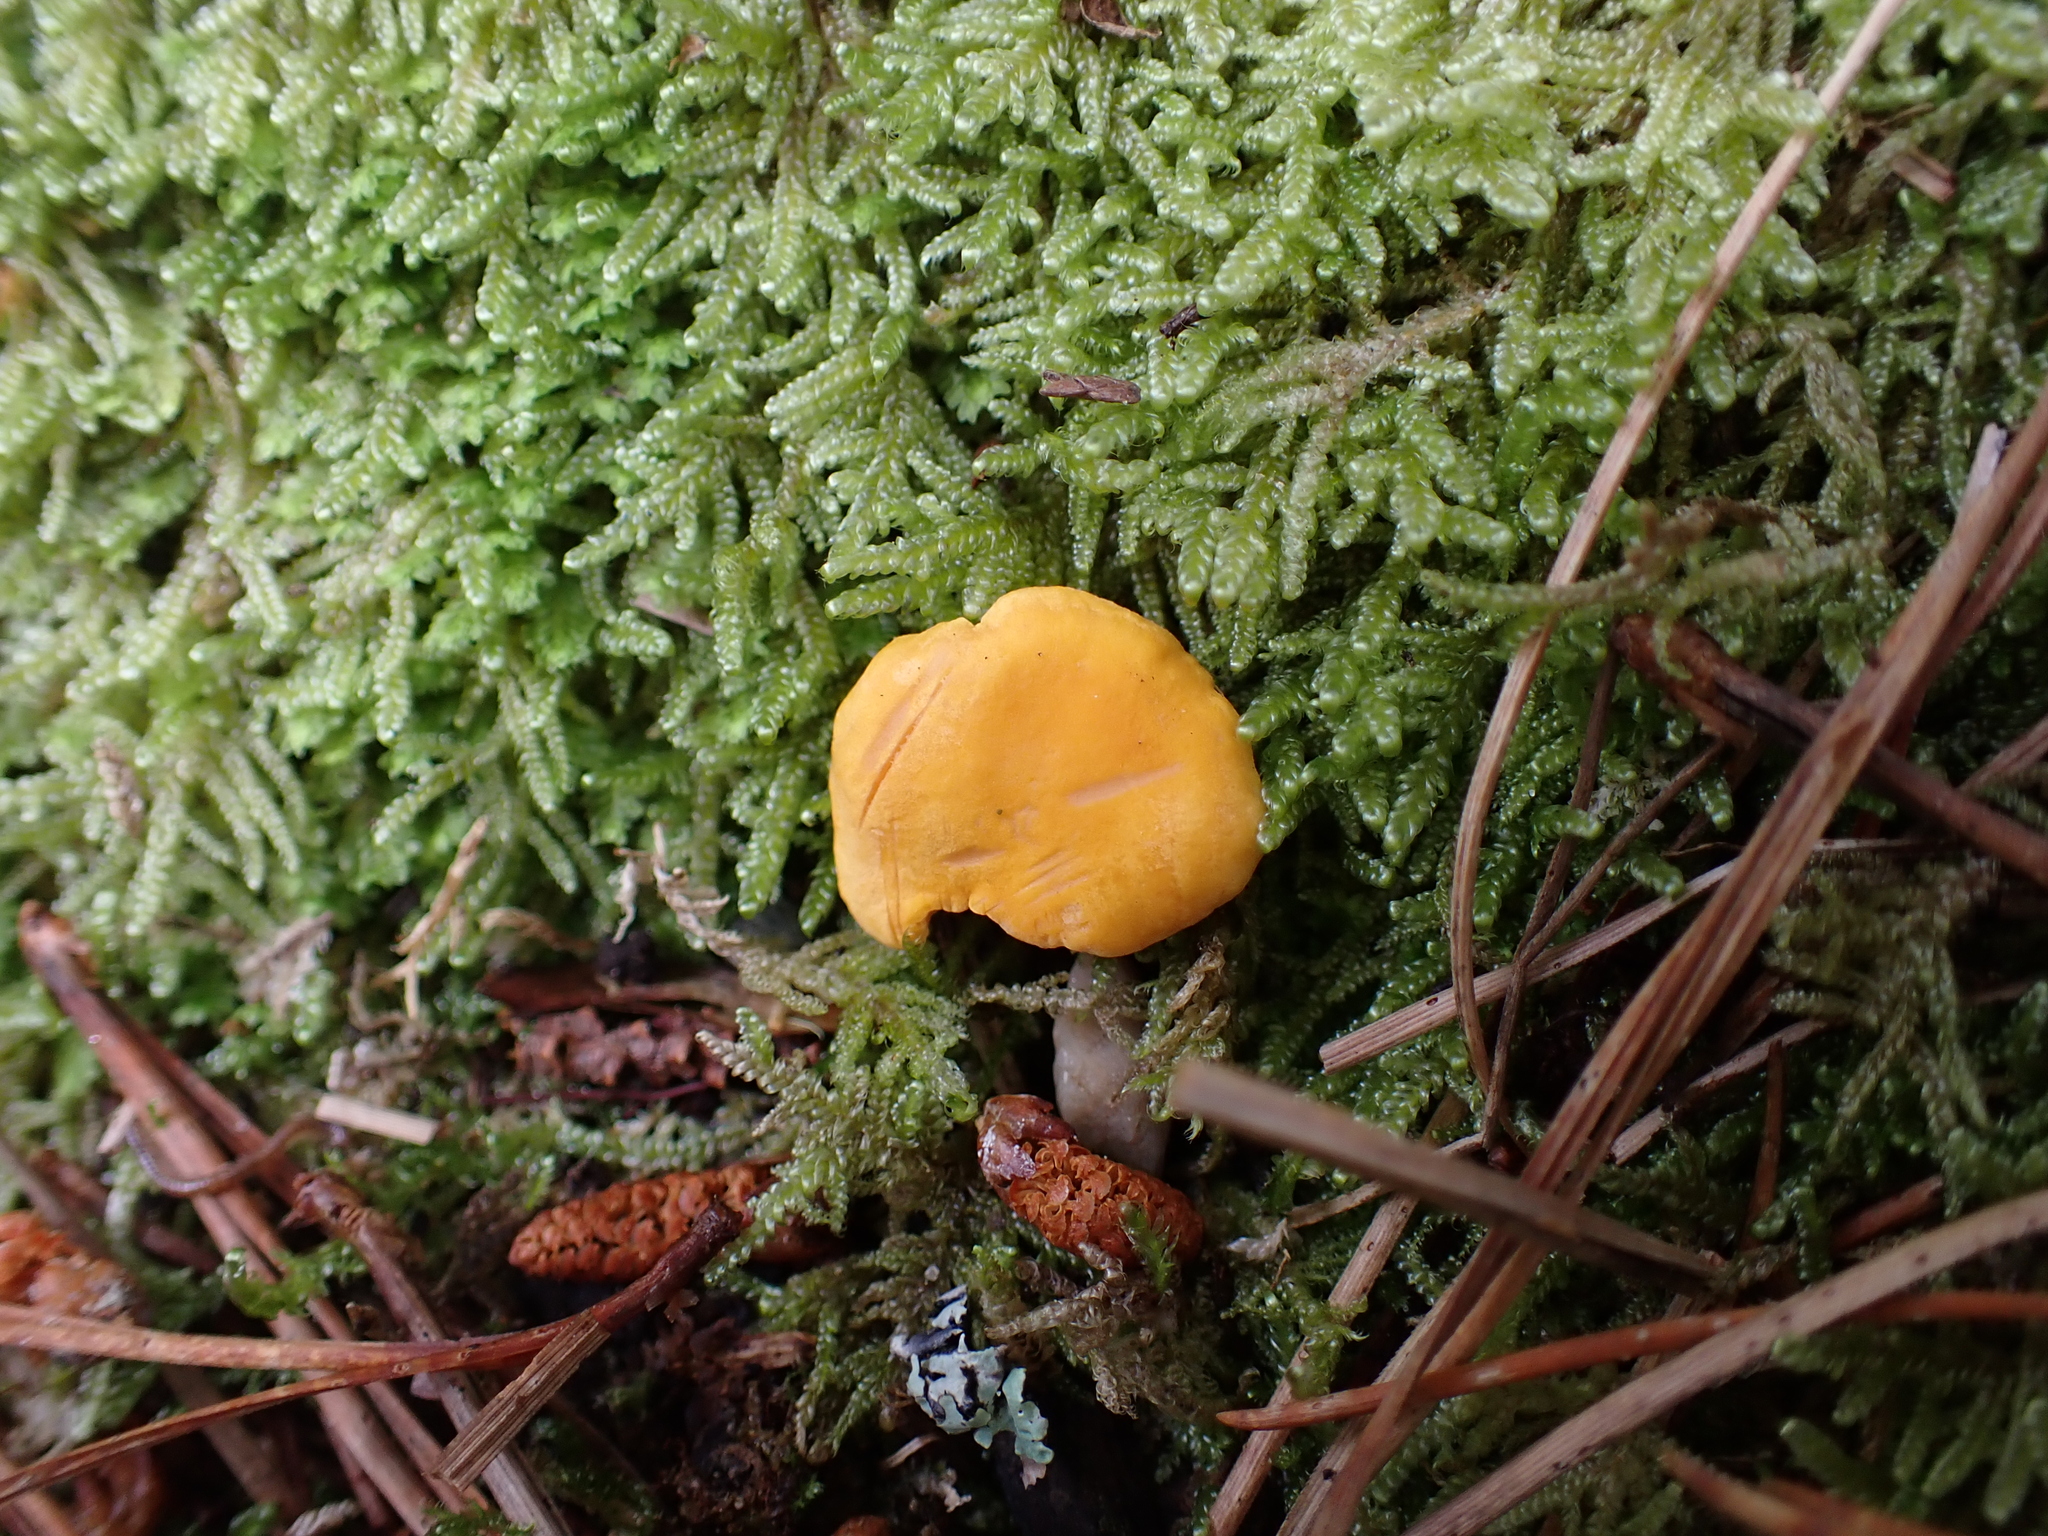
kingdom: Fungi
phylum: Basidiomycota
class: Agaricomycetes
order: Cantharellales
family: Hydnaceae
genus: Cantharellus
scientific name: Cantharellus cibarius
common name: Chanterelle
